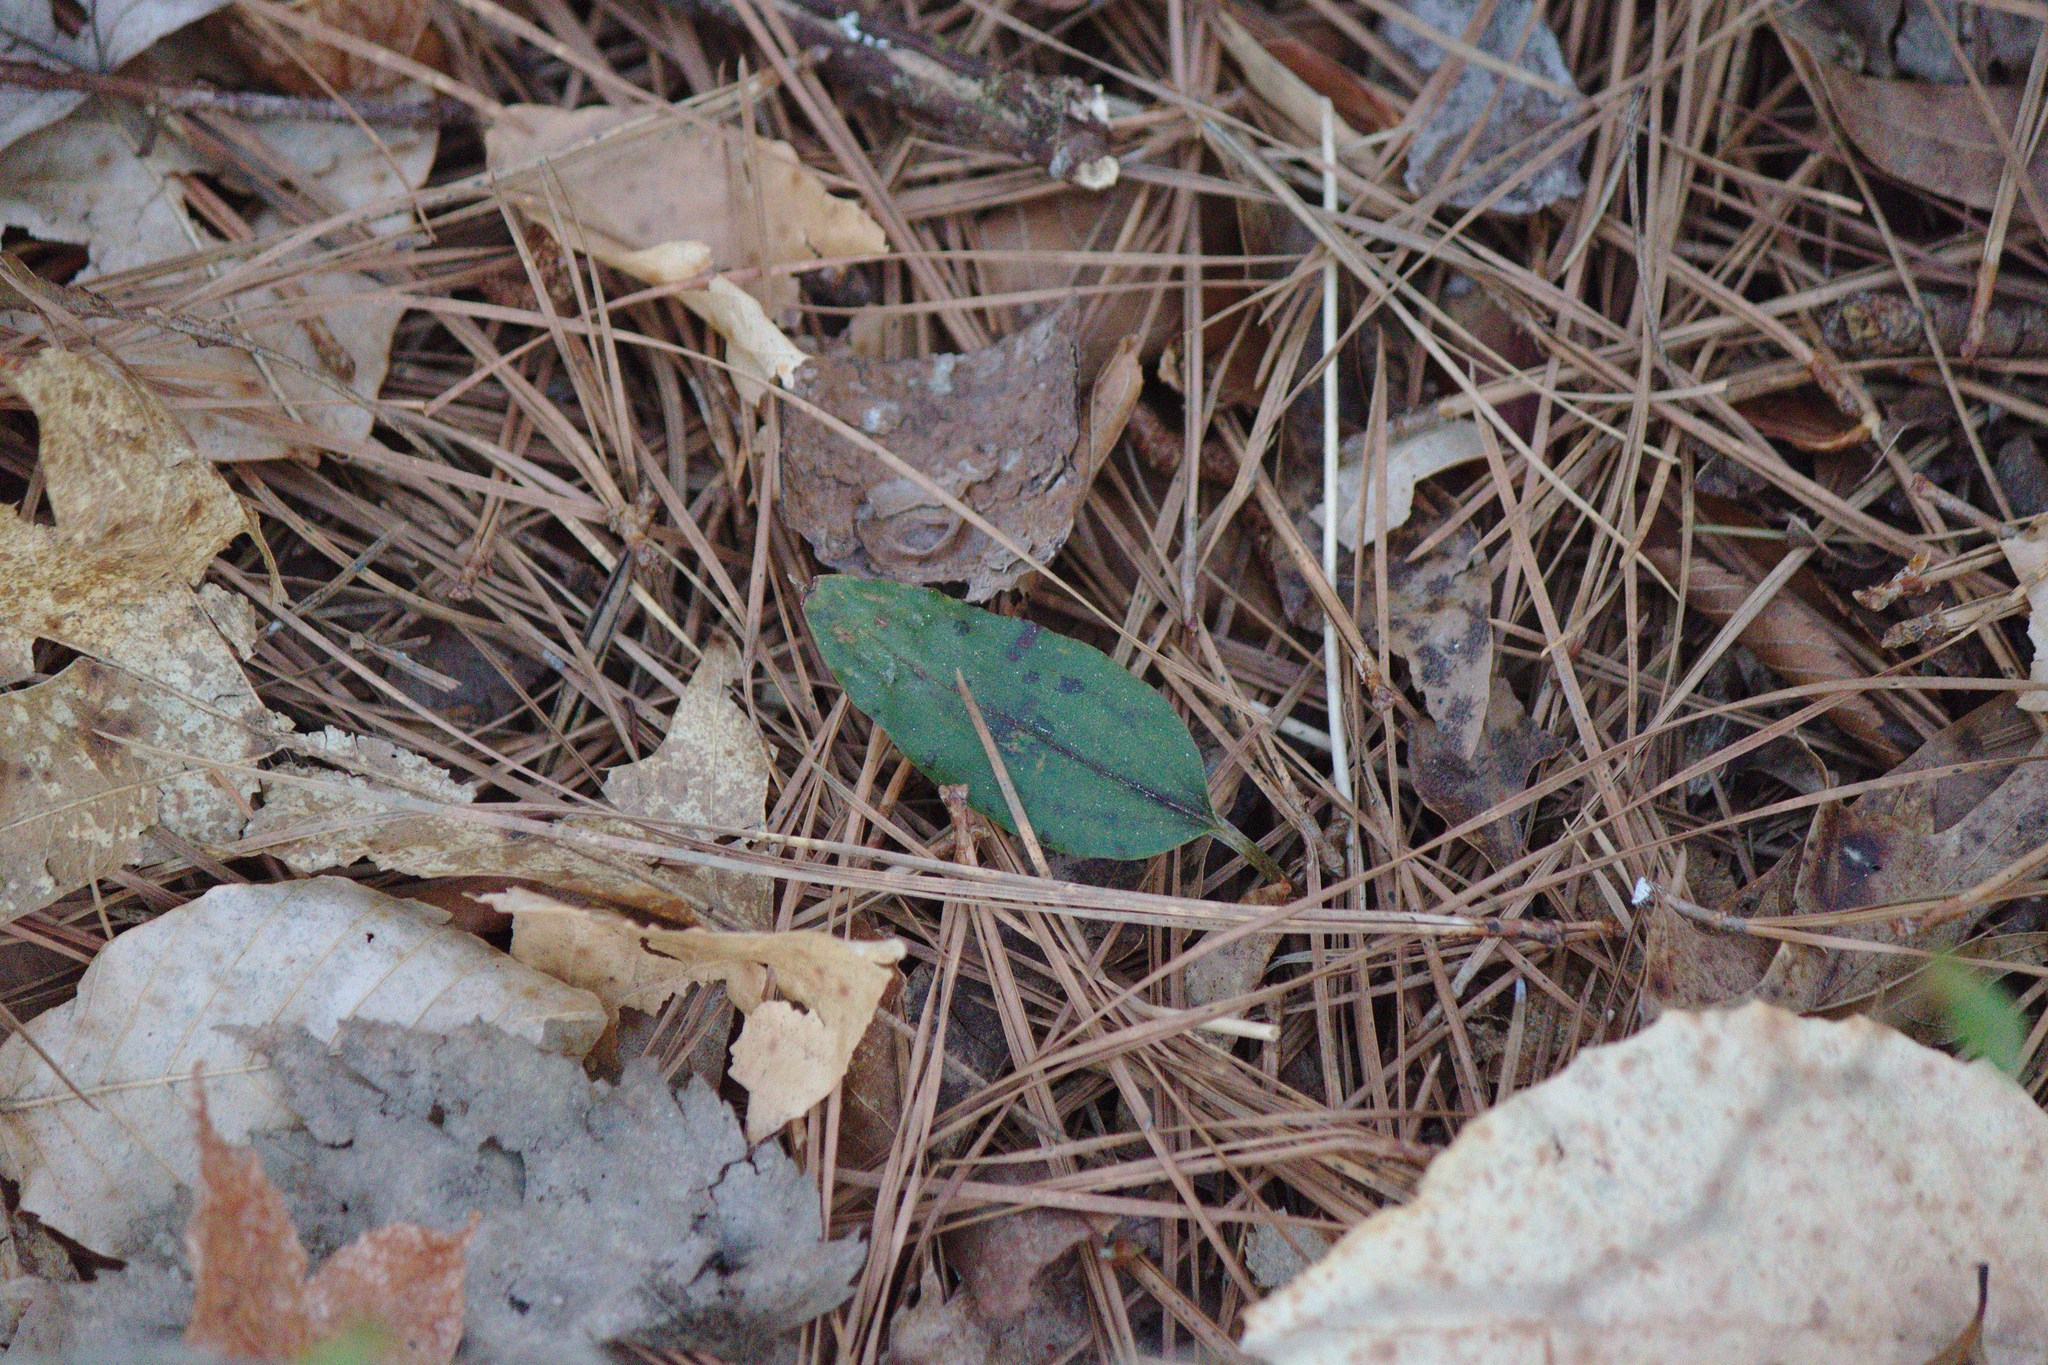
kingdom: Plantae
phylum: Tracheophyta
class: Liliopsida
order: Asparagales
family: Orchidaceae
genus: Tipularia
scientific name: Tipularia discolor
